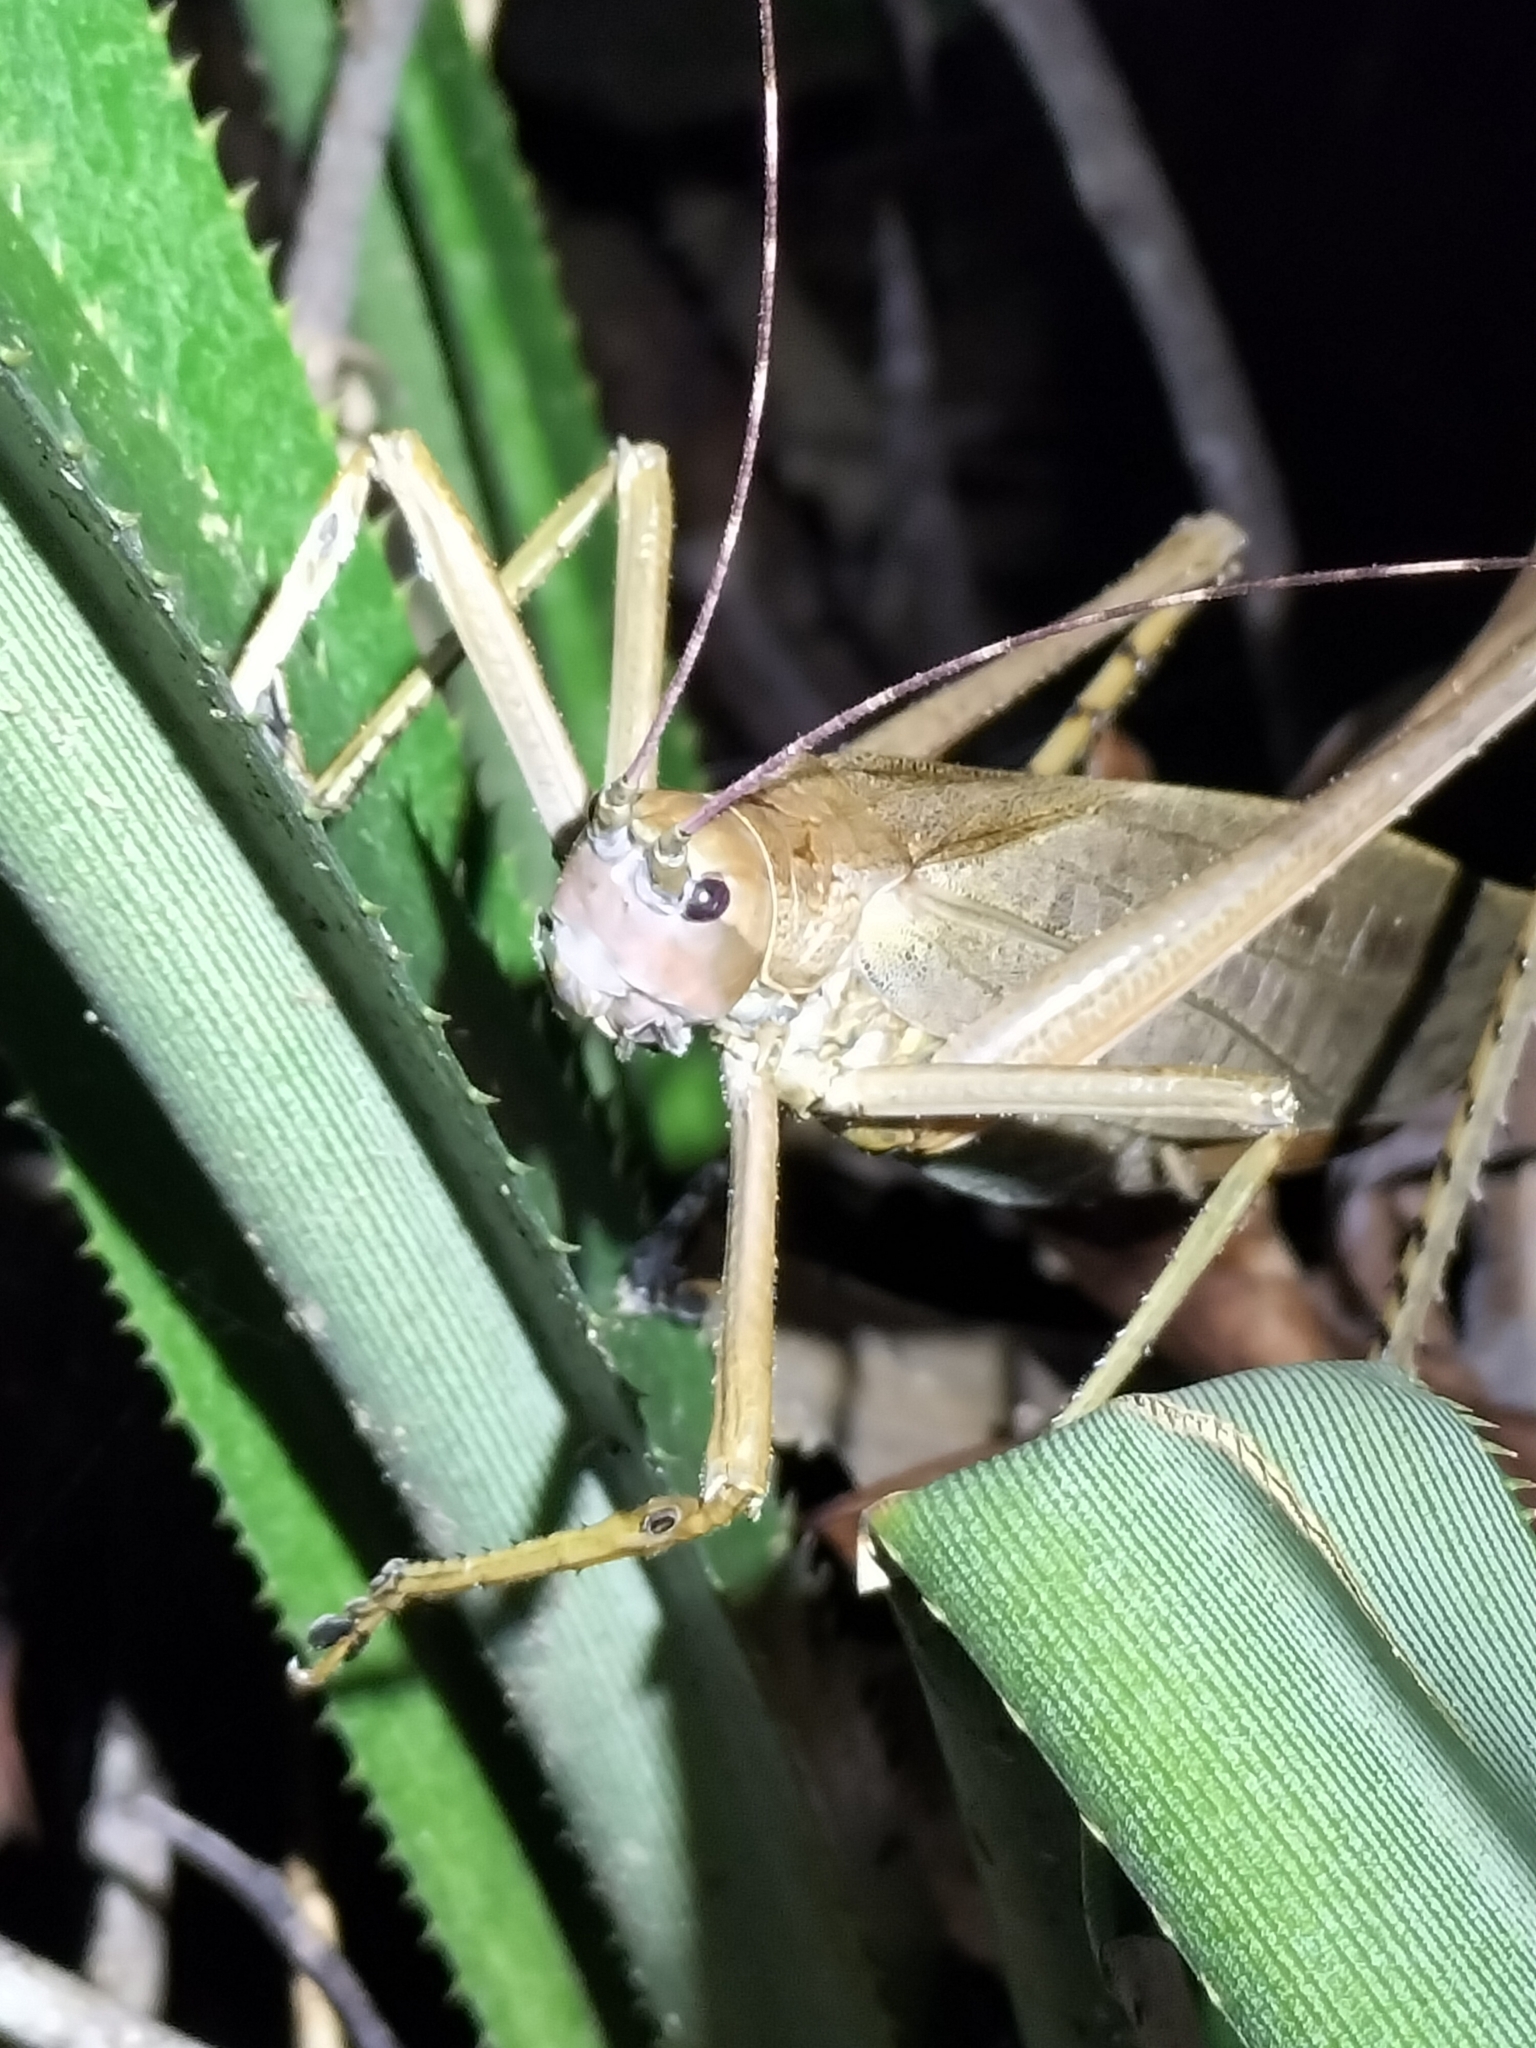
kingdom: Animalia
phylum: Arthropoda
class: Insecta
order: Orthoptera
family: Tettigoniidae
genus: Segestidea
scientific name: Segestidea queenslandica
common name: Queensland palm katydid
